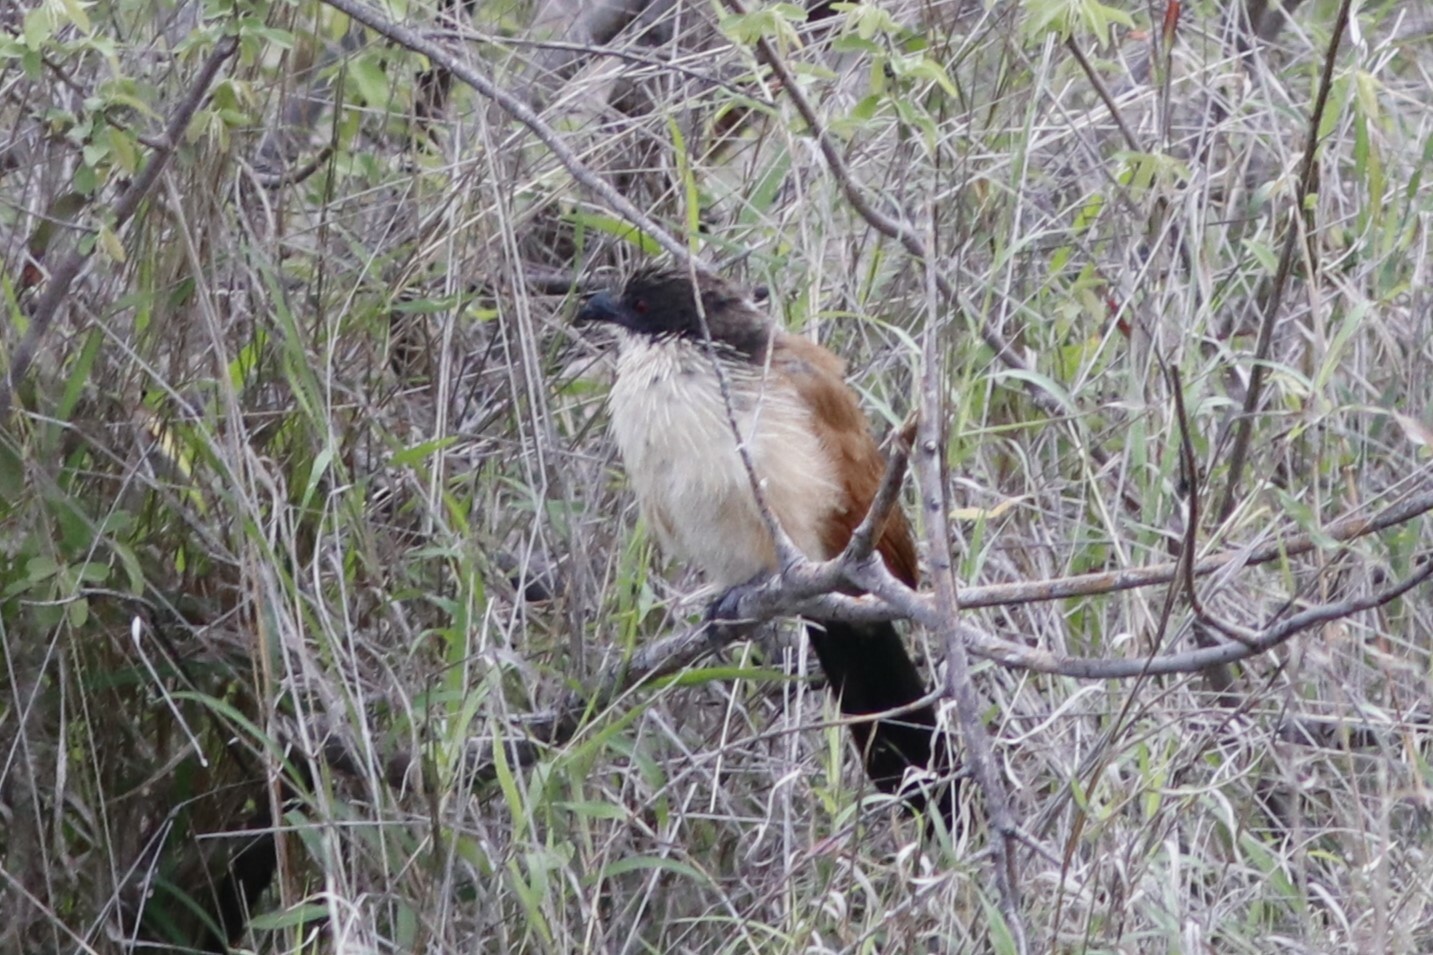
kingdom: Animalia
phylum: Chordata
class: Aves
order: Cuculiformes
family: Cuculidae
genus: Centropus
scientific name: Centropus superciliosus
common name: White-browed coucal
